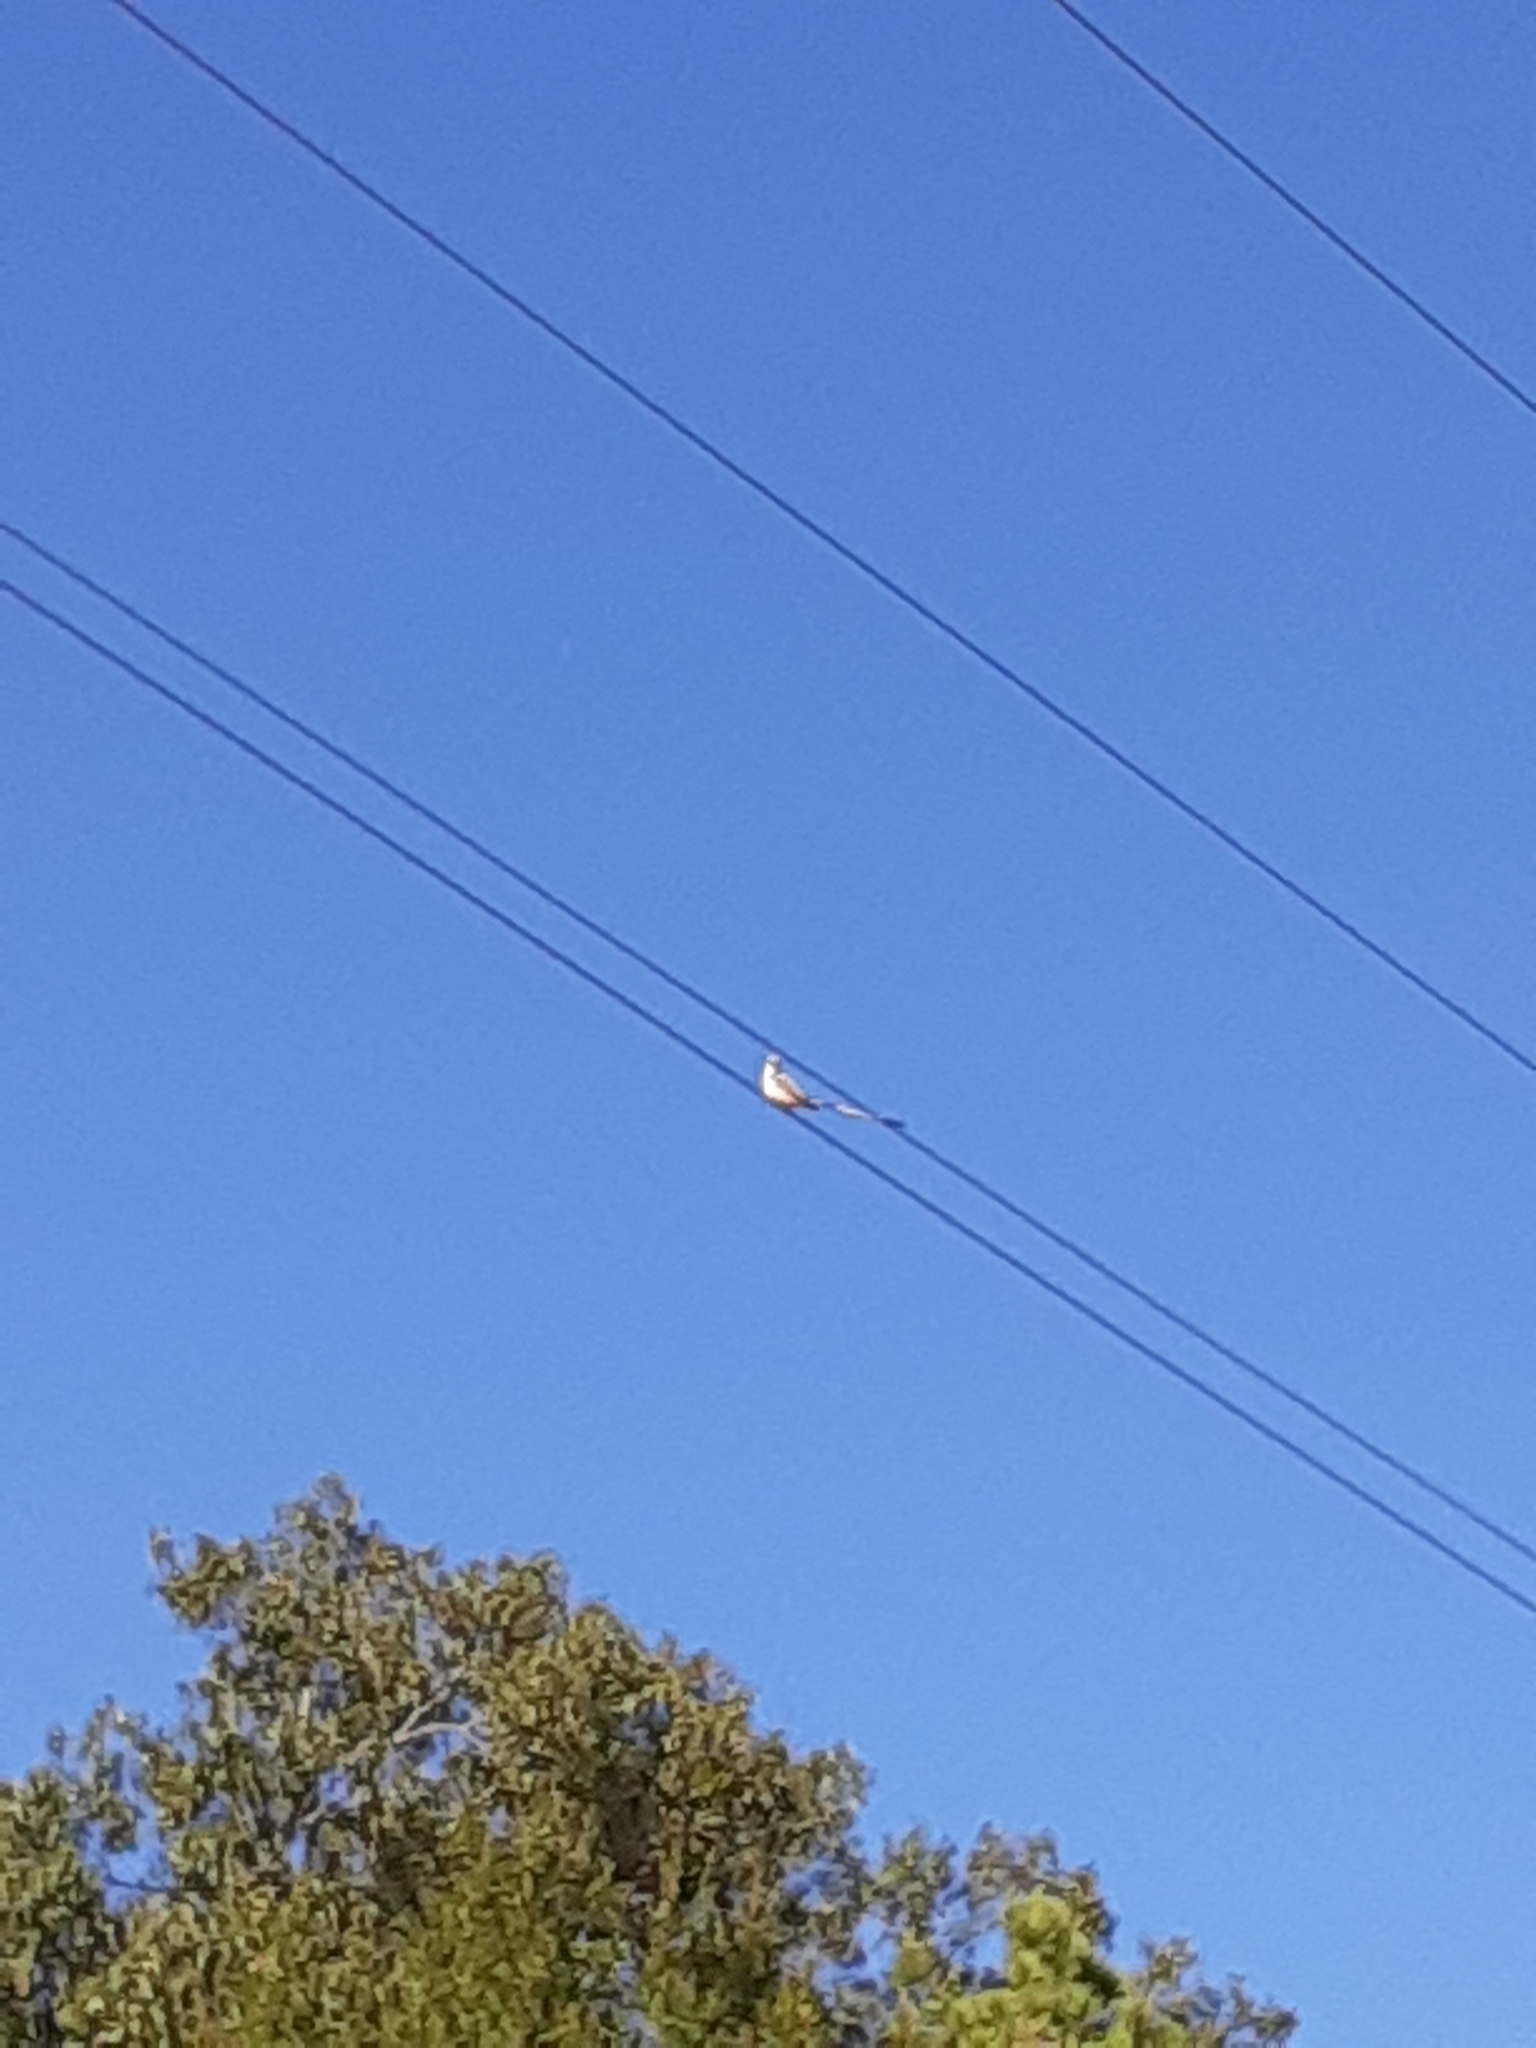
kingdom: Animalia
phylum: Chordata
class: Aves
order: Passeriformes
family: Tyrannidae
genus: Tyrannus
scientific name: Tyrannus forficatus
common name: Scissor-tailed flycatcher
